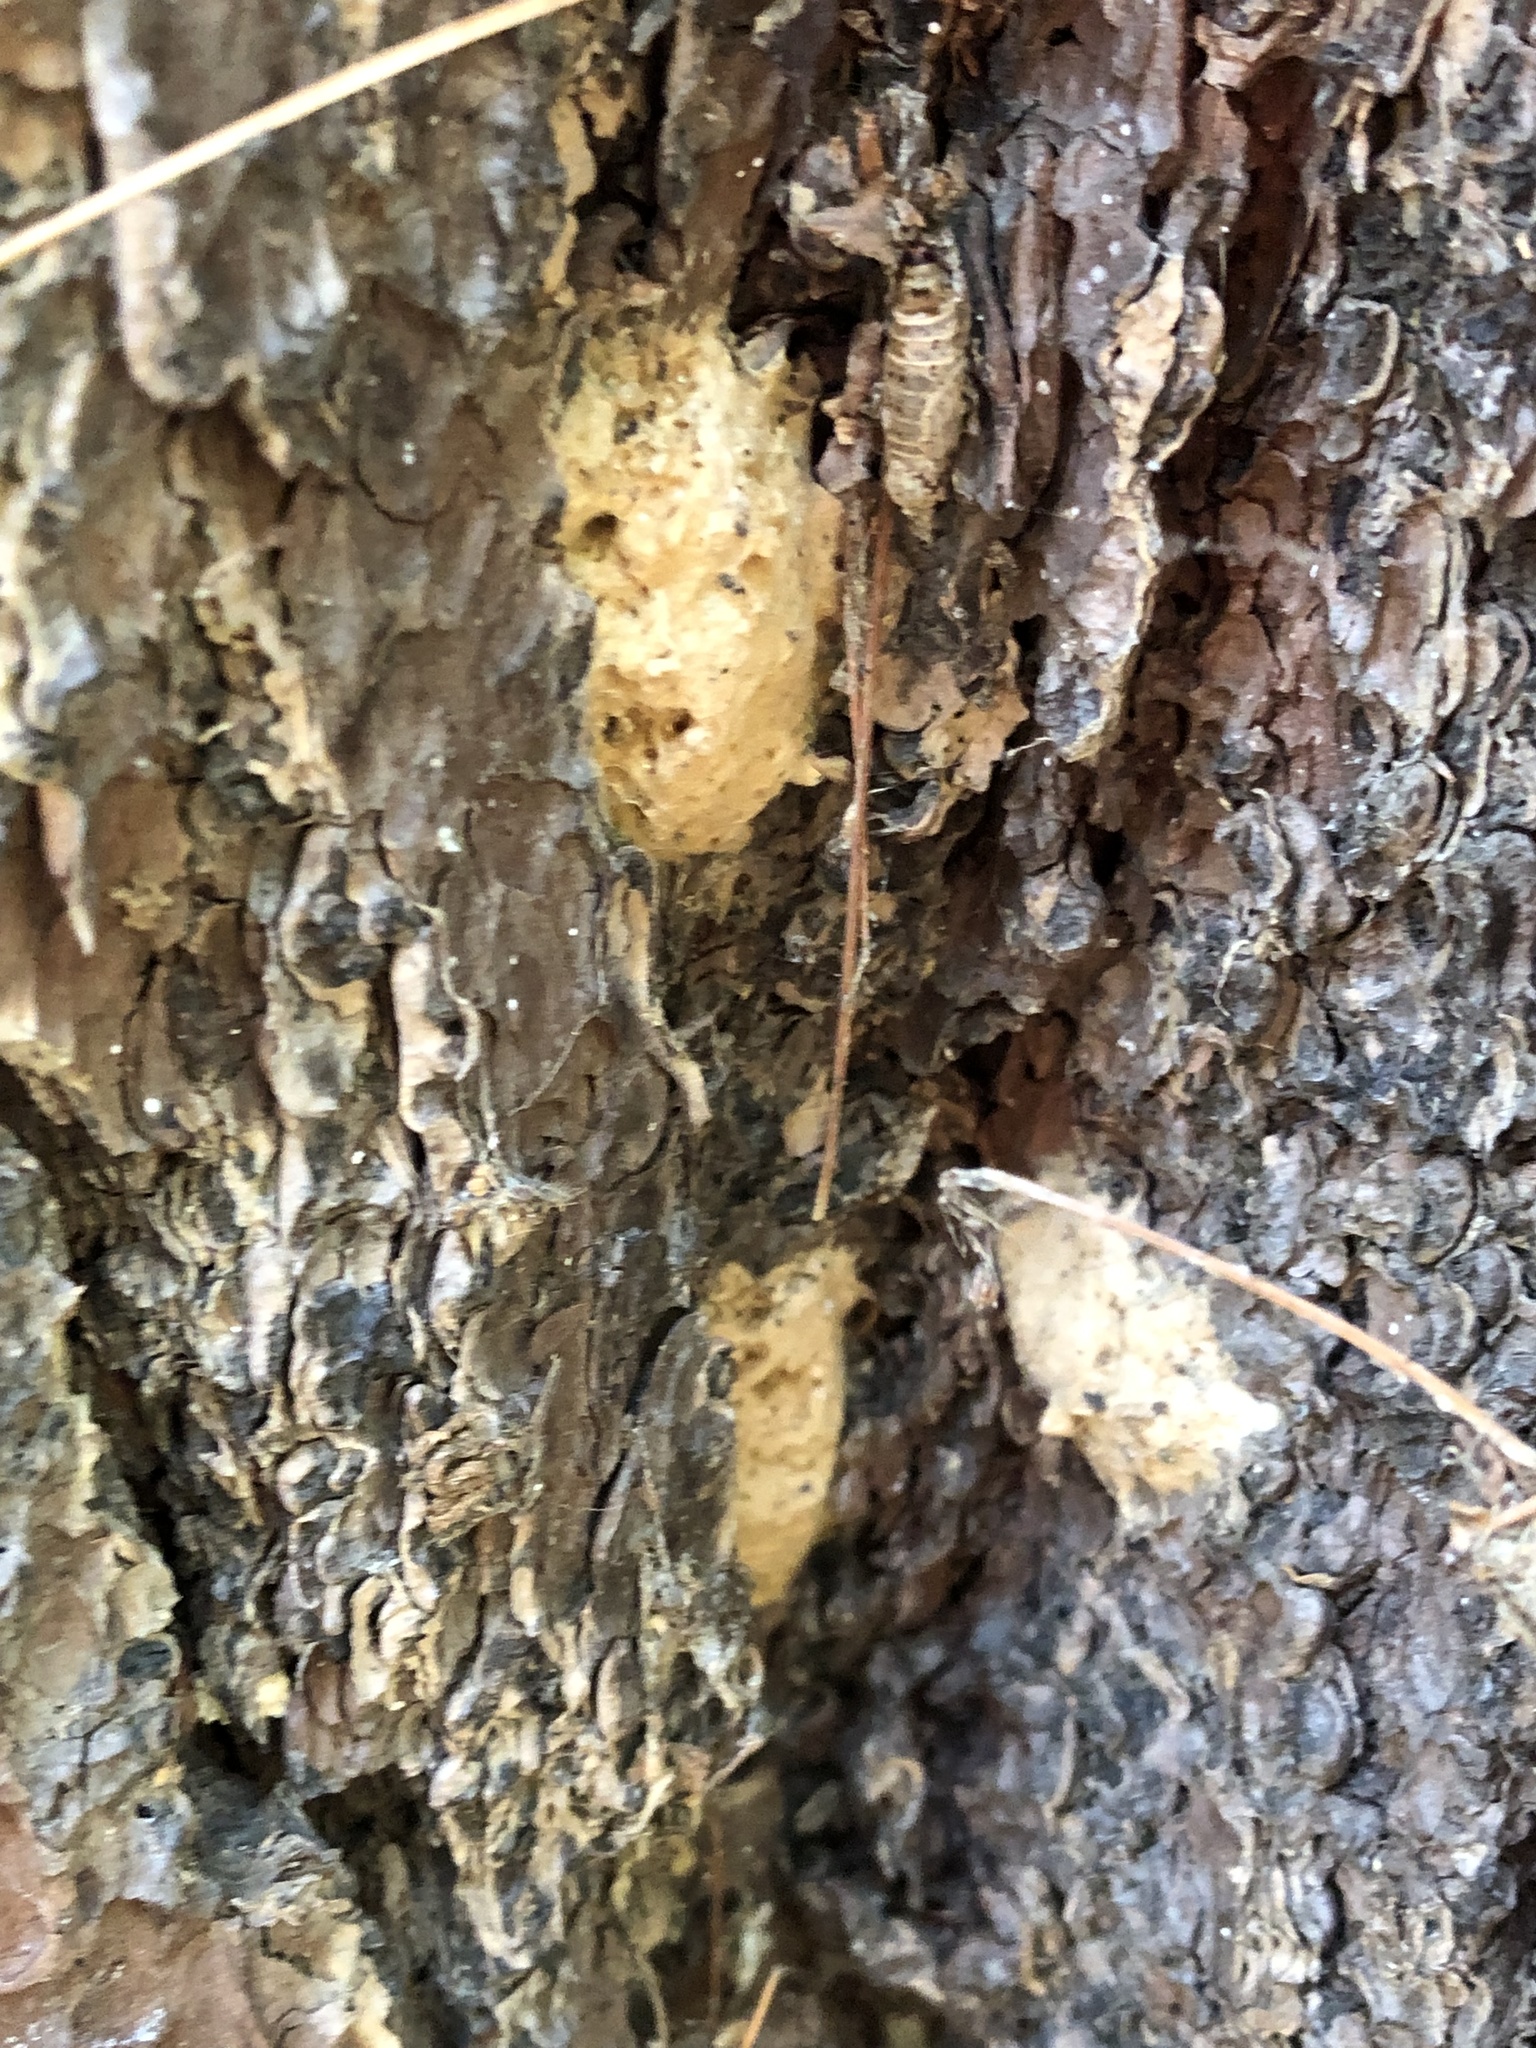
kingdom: Animalia
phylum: Arthropoda
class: Insecta
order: Lepidoptera
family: Erebidae
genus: Lymantria
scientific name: Lymantria dispar
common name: Gypsy moth
